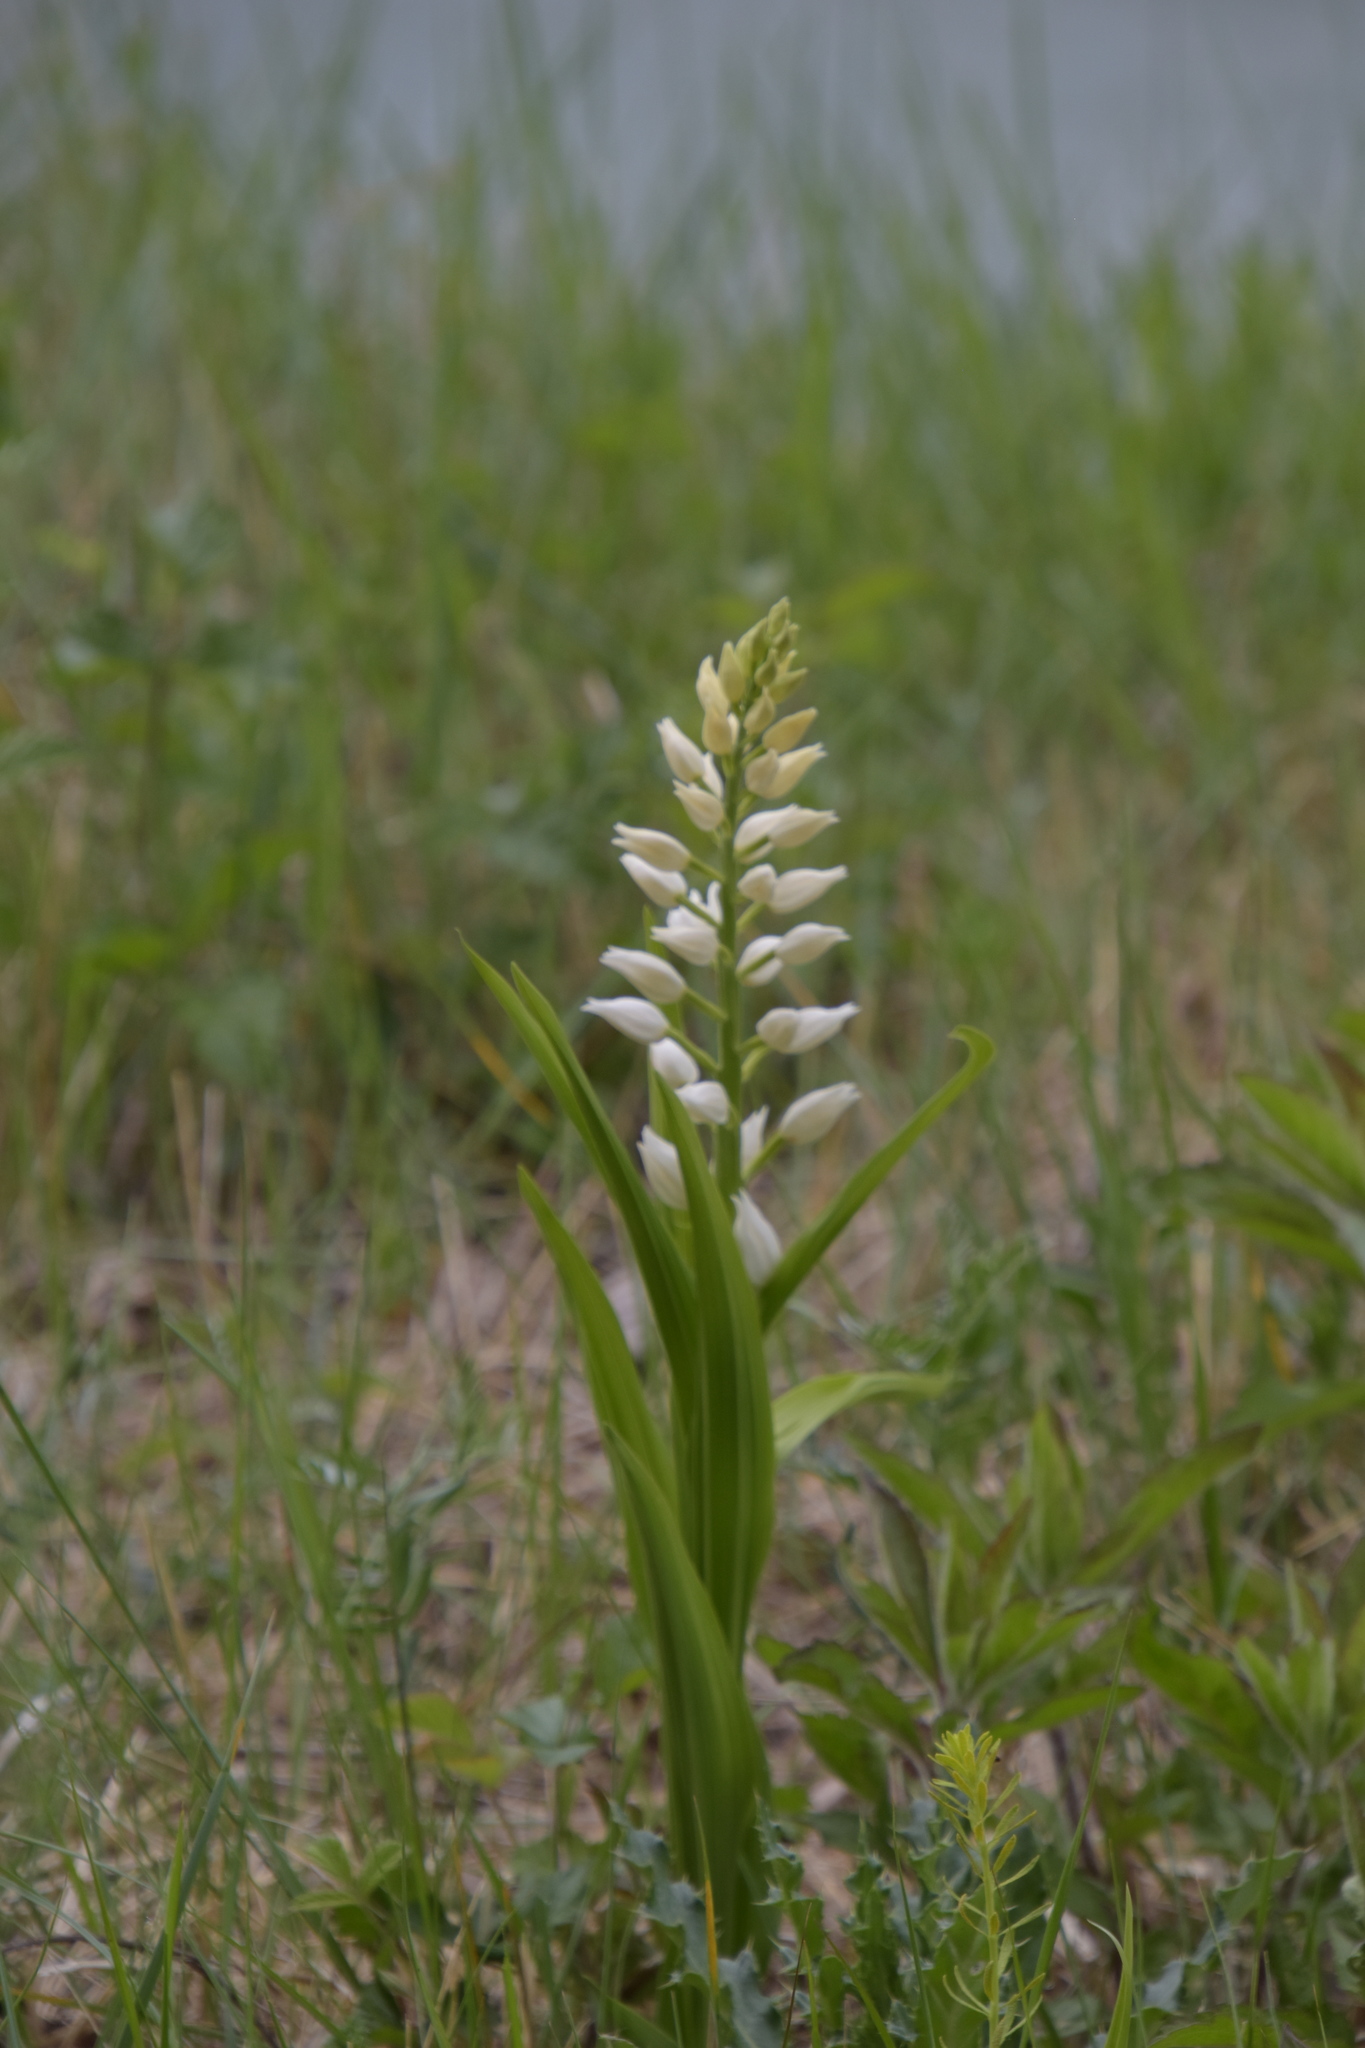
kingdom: Plantae
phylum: Tracheophyta
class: Liliopsida
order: Asparagales
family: Orchidaceae
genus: Cephalanthera
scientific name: Cephalanthera longifolia
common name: Narrow-leaved helleborine
